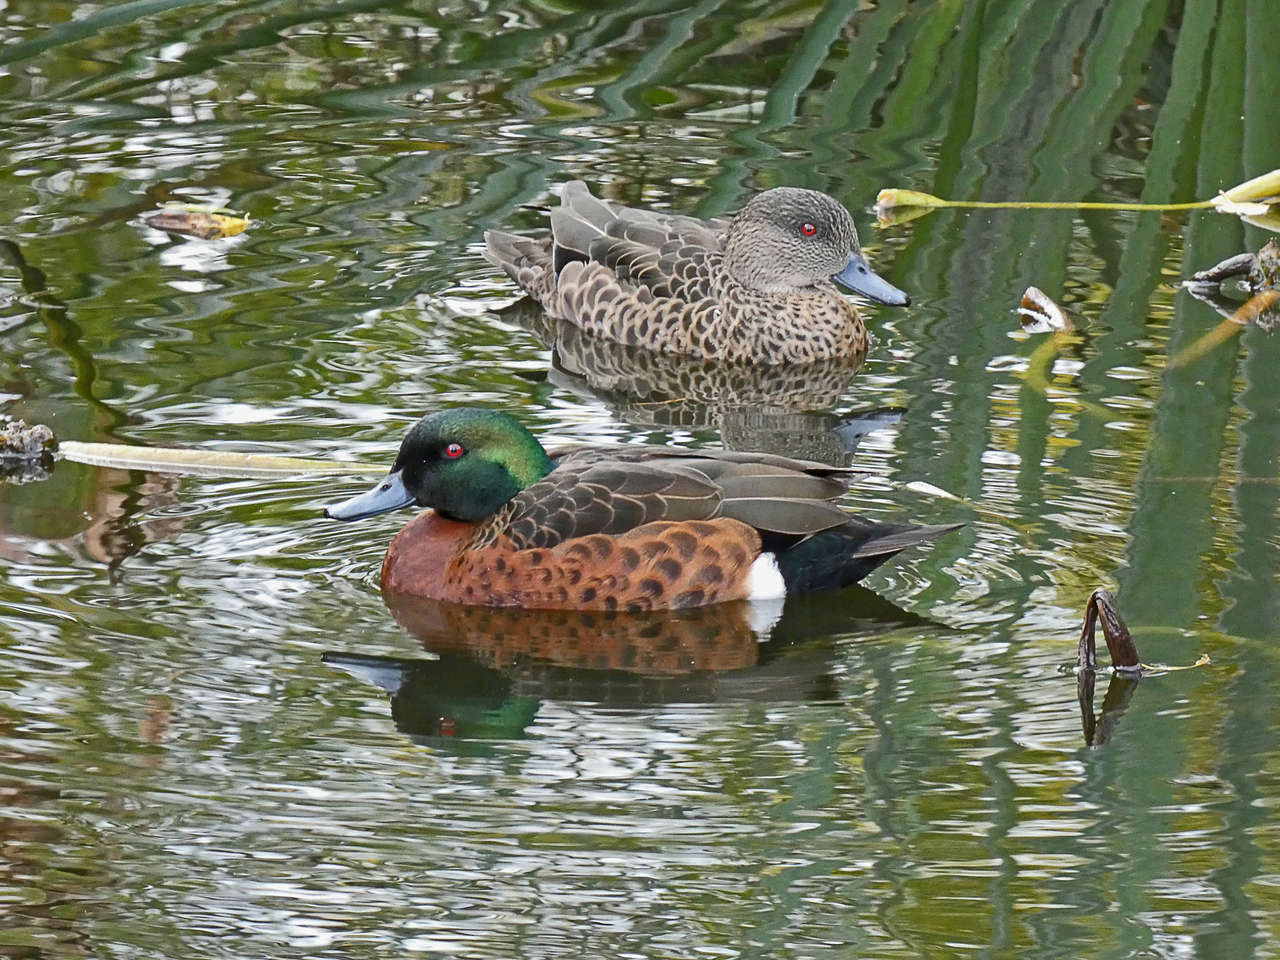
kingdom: Animalia
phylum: Chordata
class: Aves
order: Anseriformes
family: Anatidae
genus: Anas
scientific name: Anas castanea
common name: Chestnut teal
